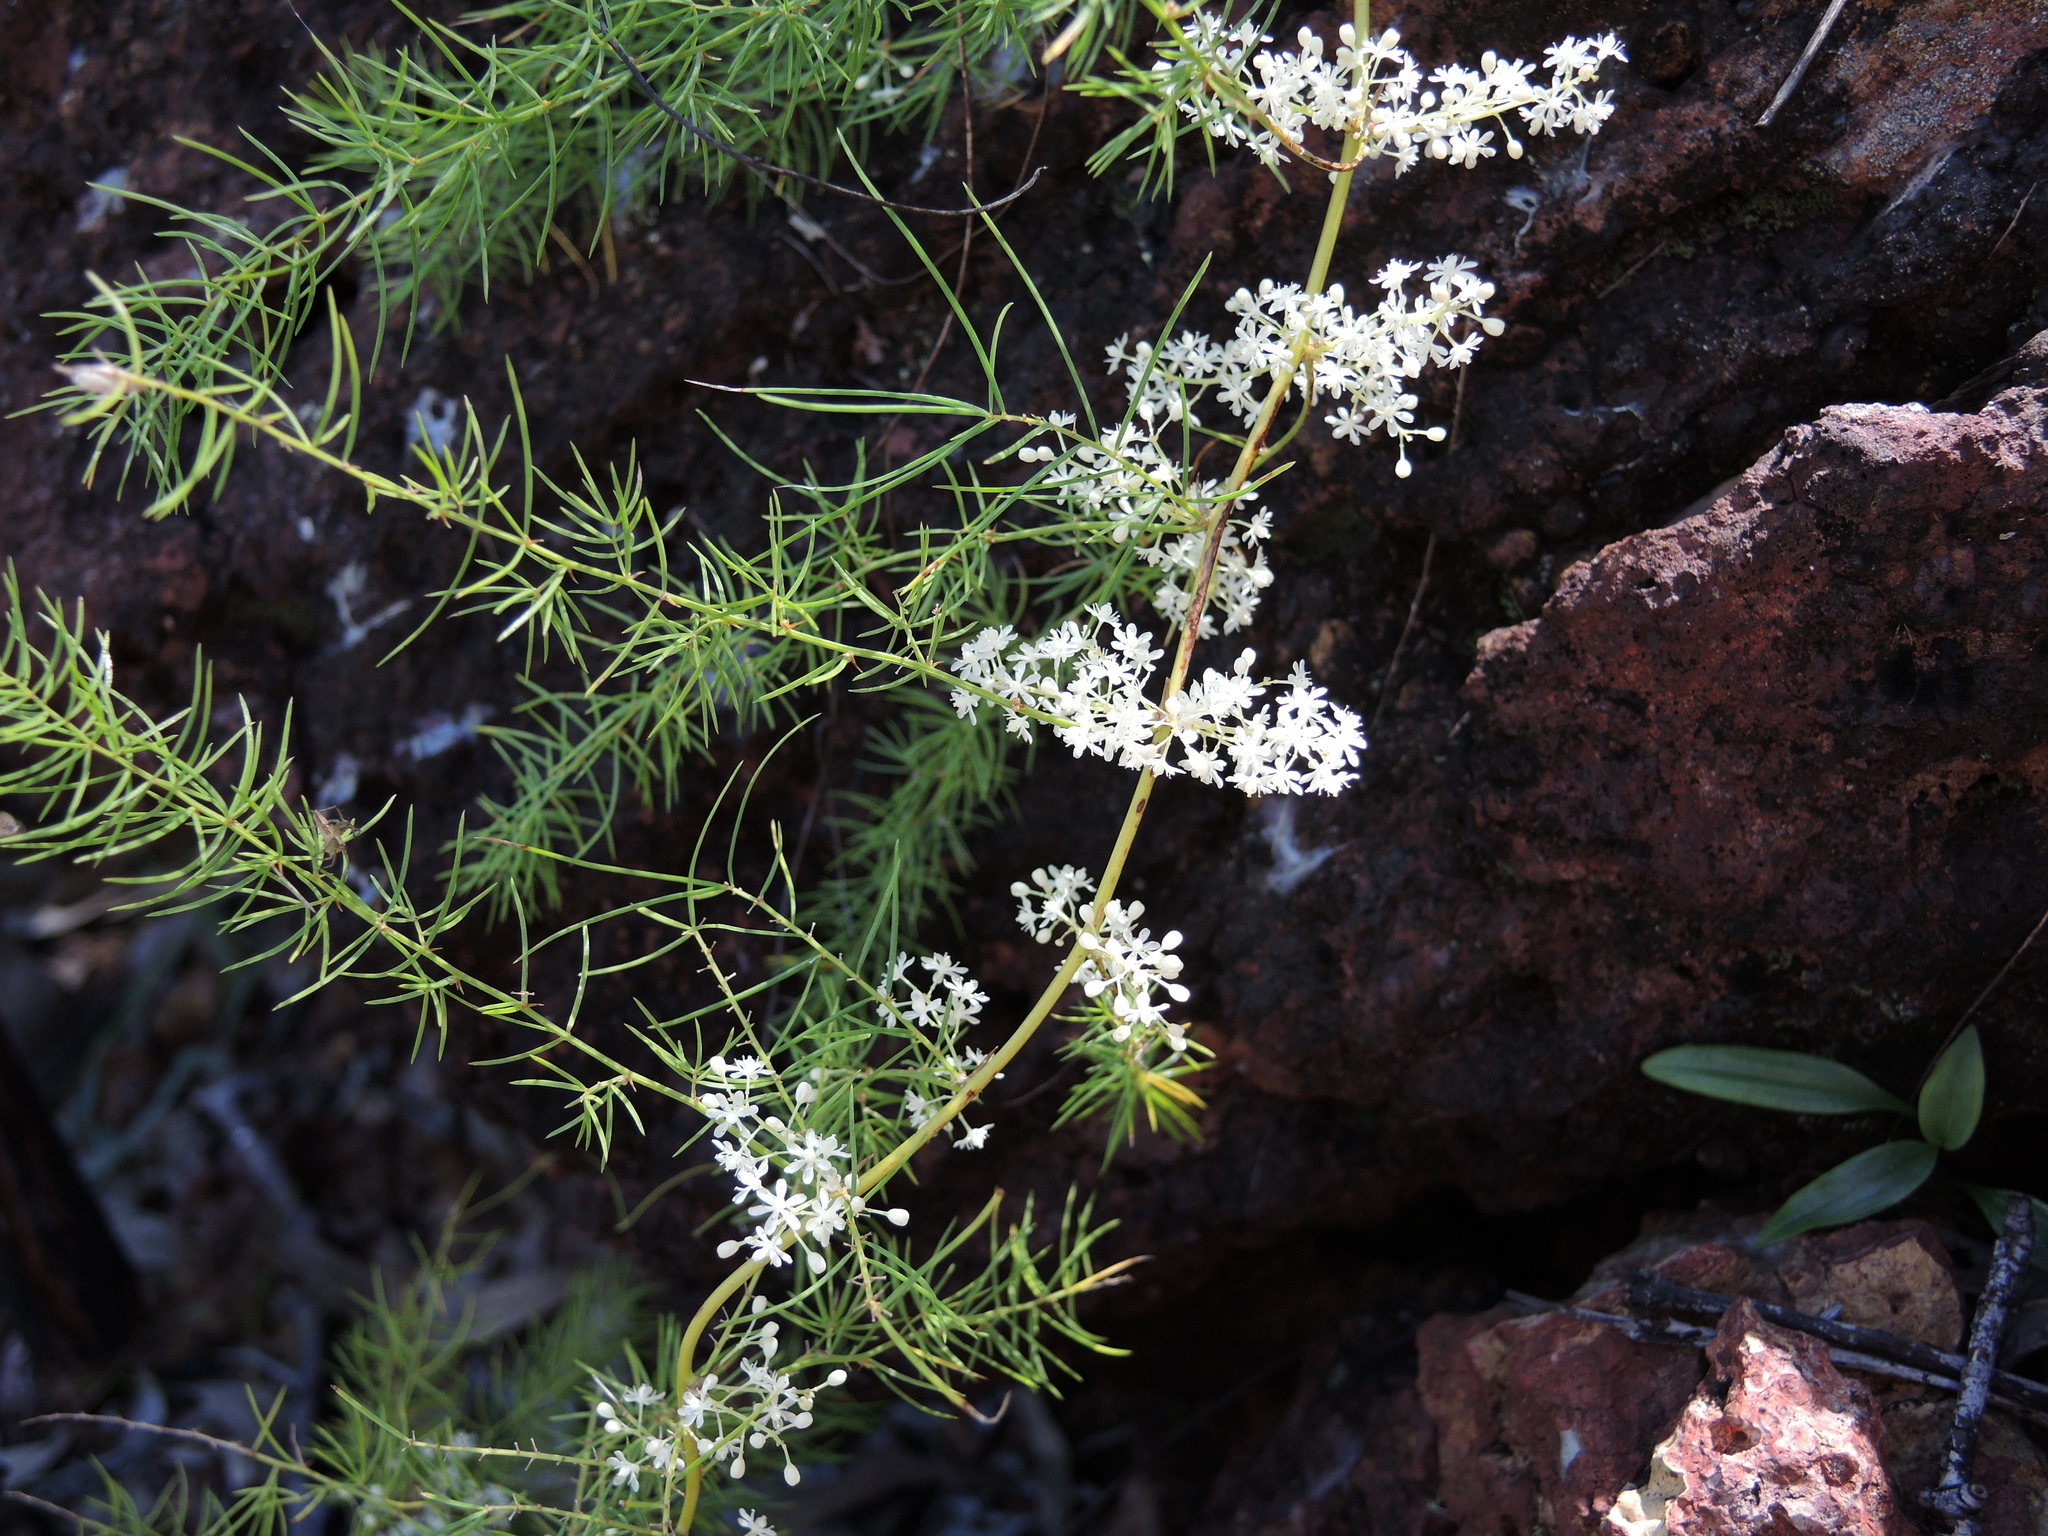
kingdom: Plantae
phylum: Tracheophyta
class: Liliopsida
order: Asparagales
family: Asparagaceae
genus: Asparagus
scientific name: Asparagus racemosus
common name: Asparagus-fern
